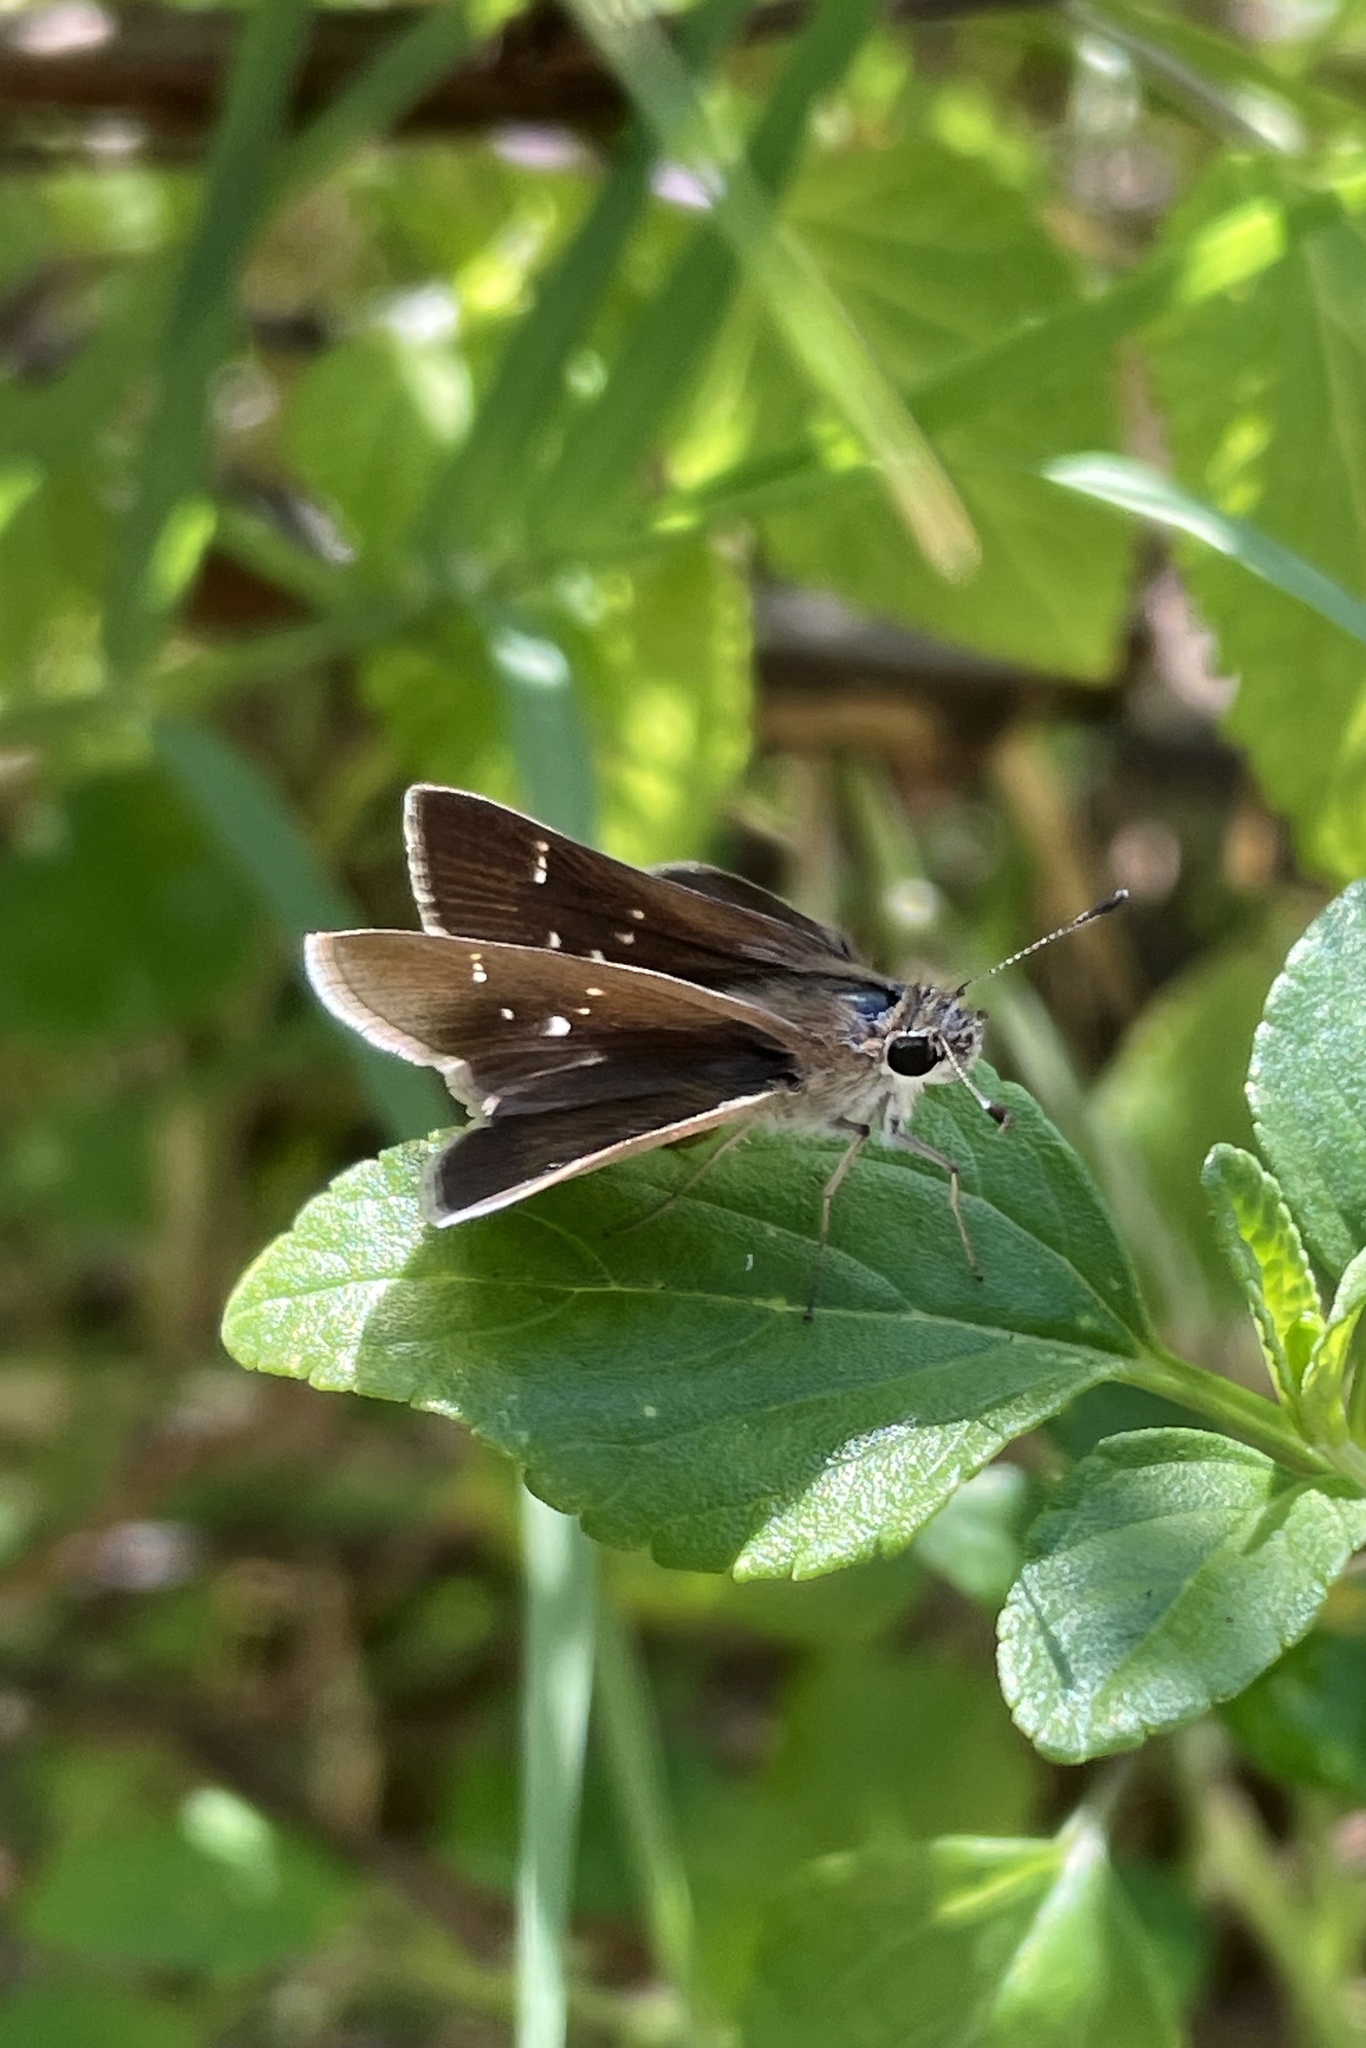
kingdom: Animalia
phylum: Arthropoda
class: Insecta
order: Lepidoptera
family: Hesperiidae
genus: Lerodea
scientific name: Lerodea eufala
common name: Eufala skipper
